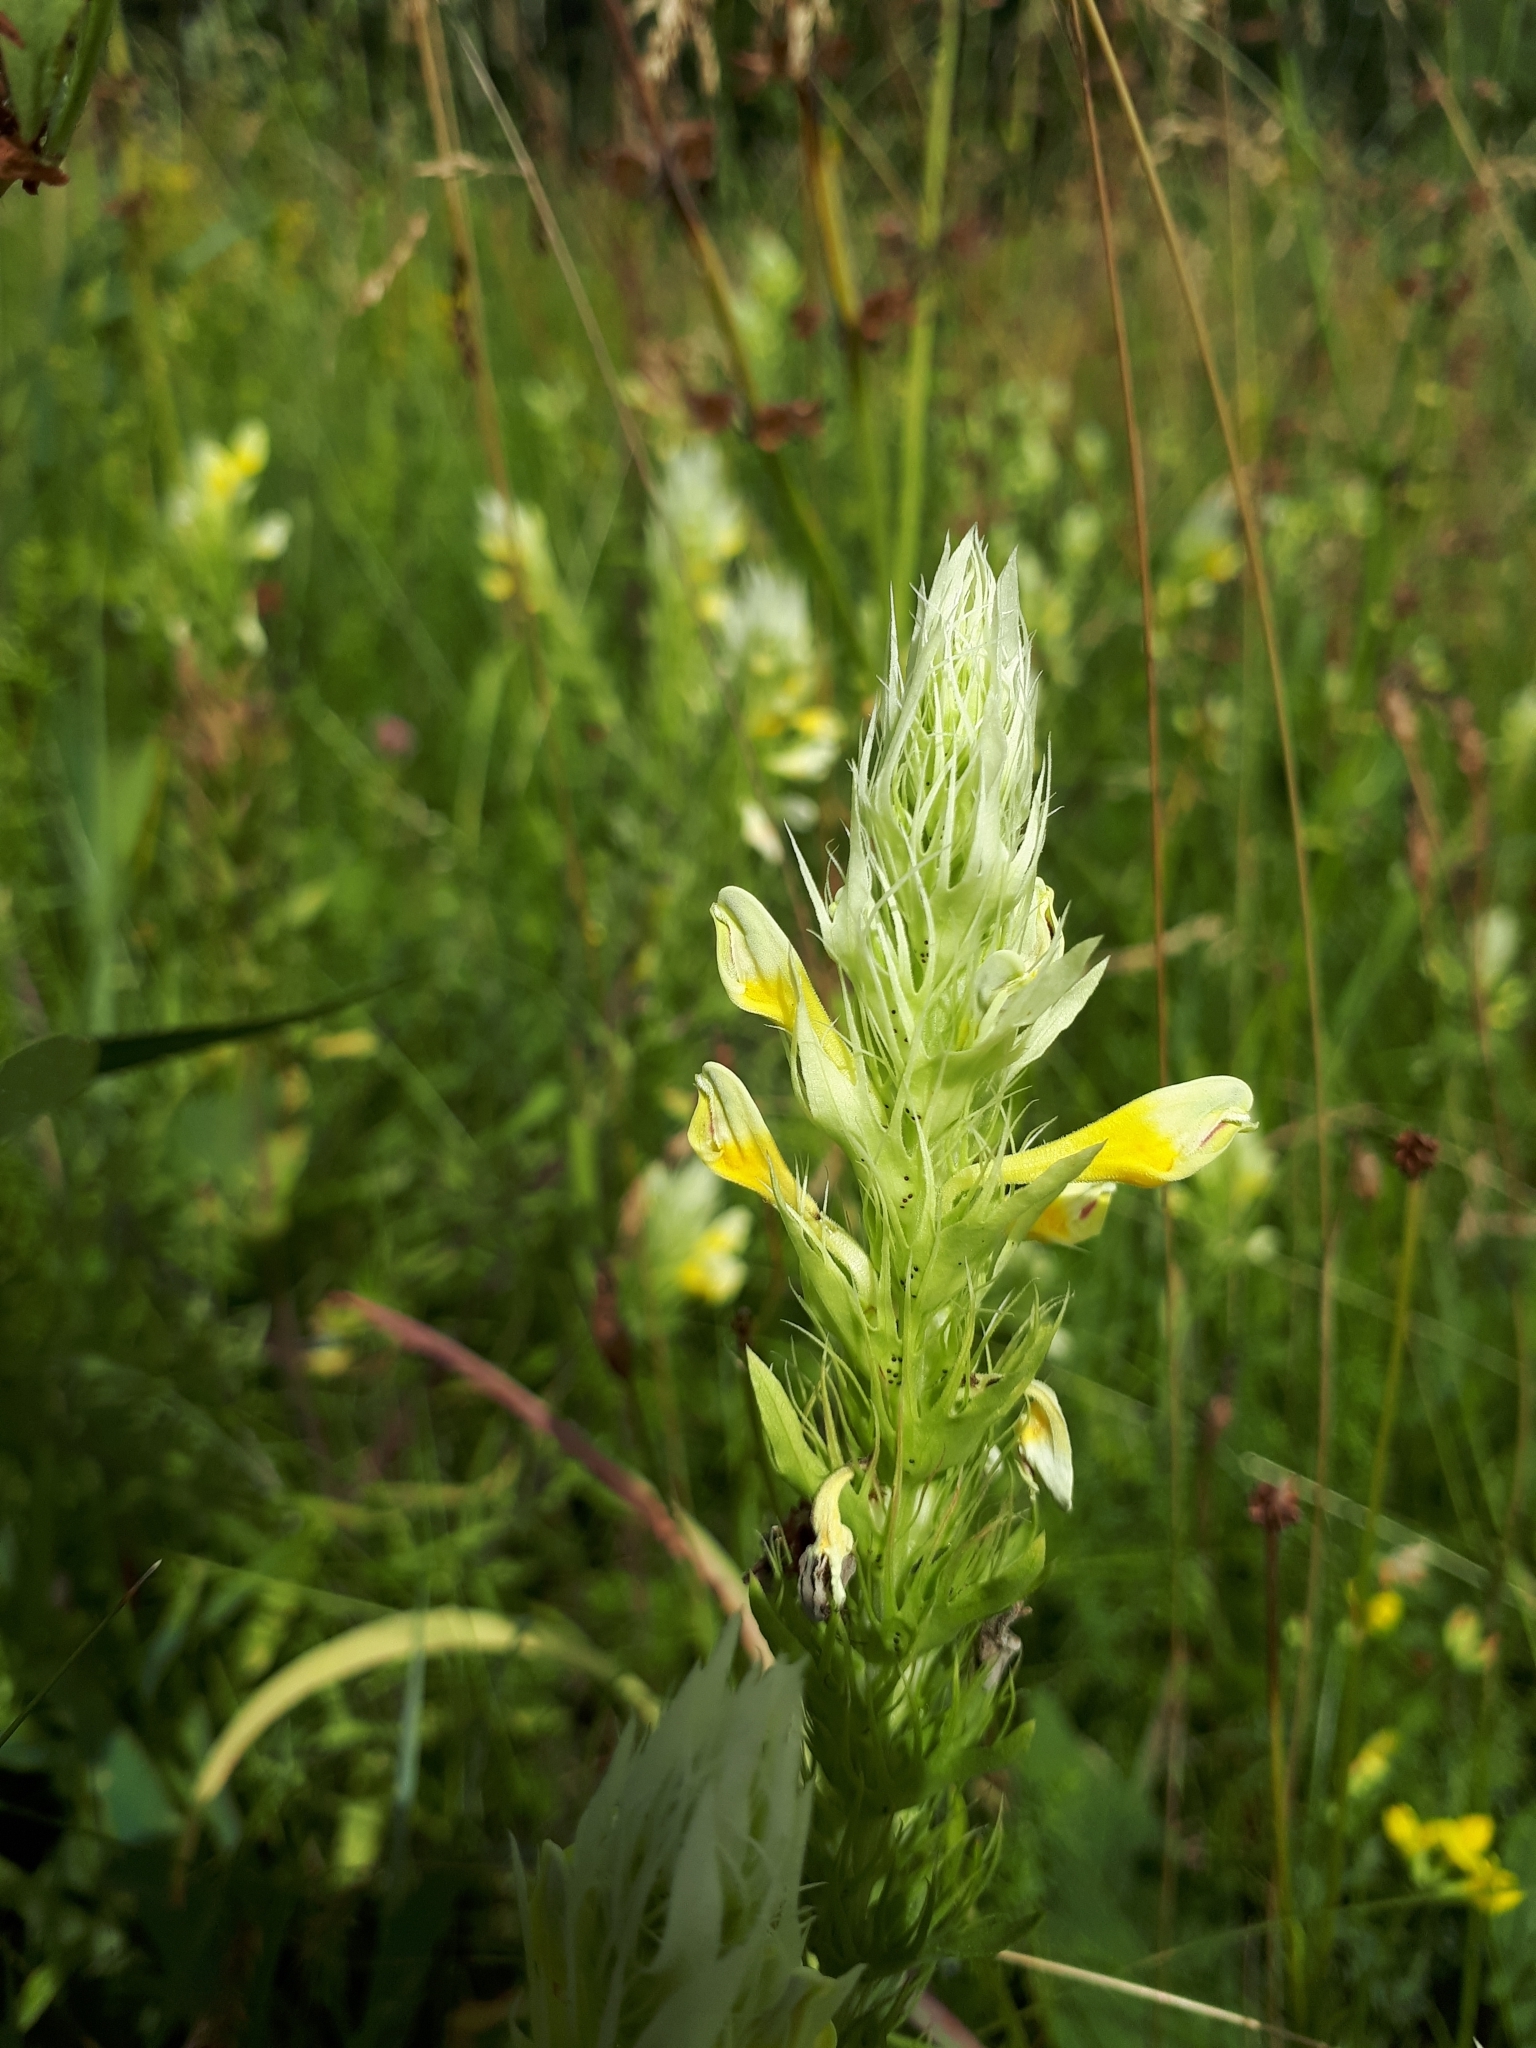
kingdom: Plantae
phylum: Tracheophyta
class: Magnoliopsida
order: Lamiales
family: Orobanchaceae
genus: Melampyrum
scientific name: Melampyrum arvense
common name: Field cow-wheat
